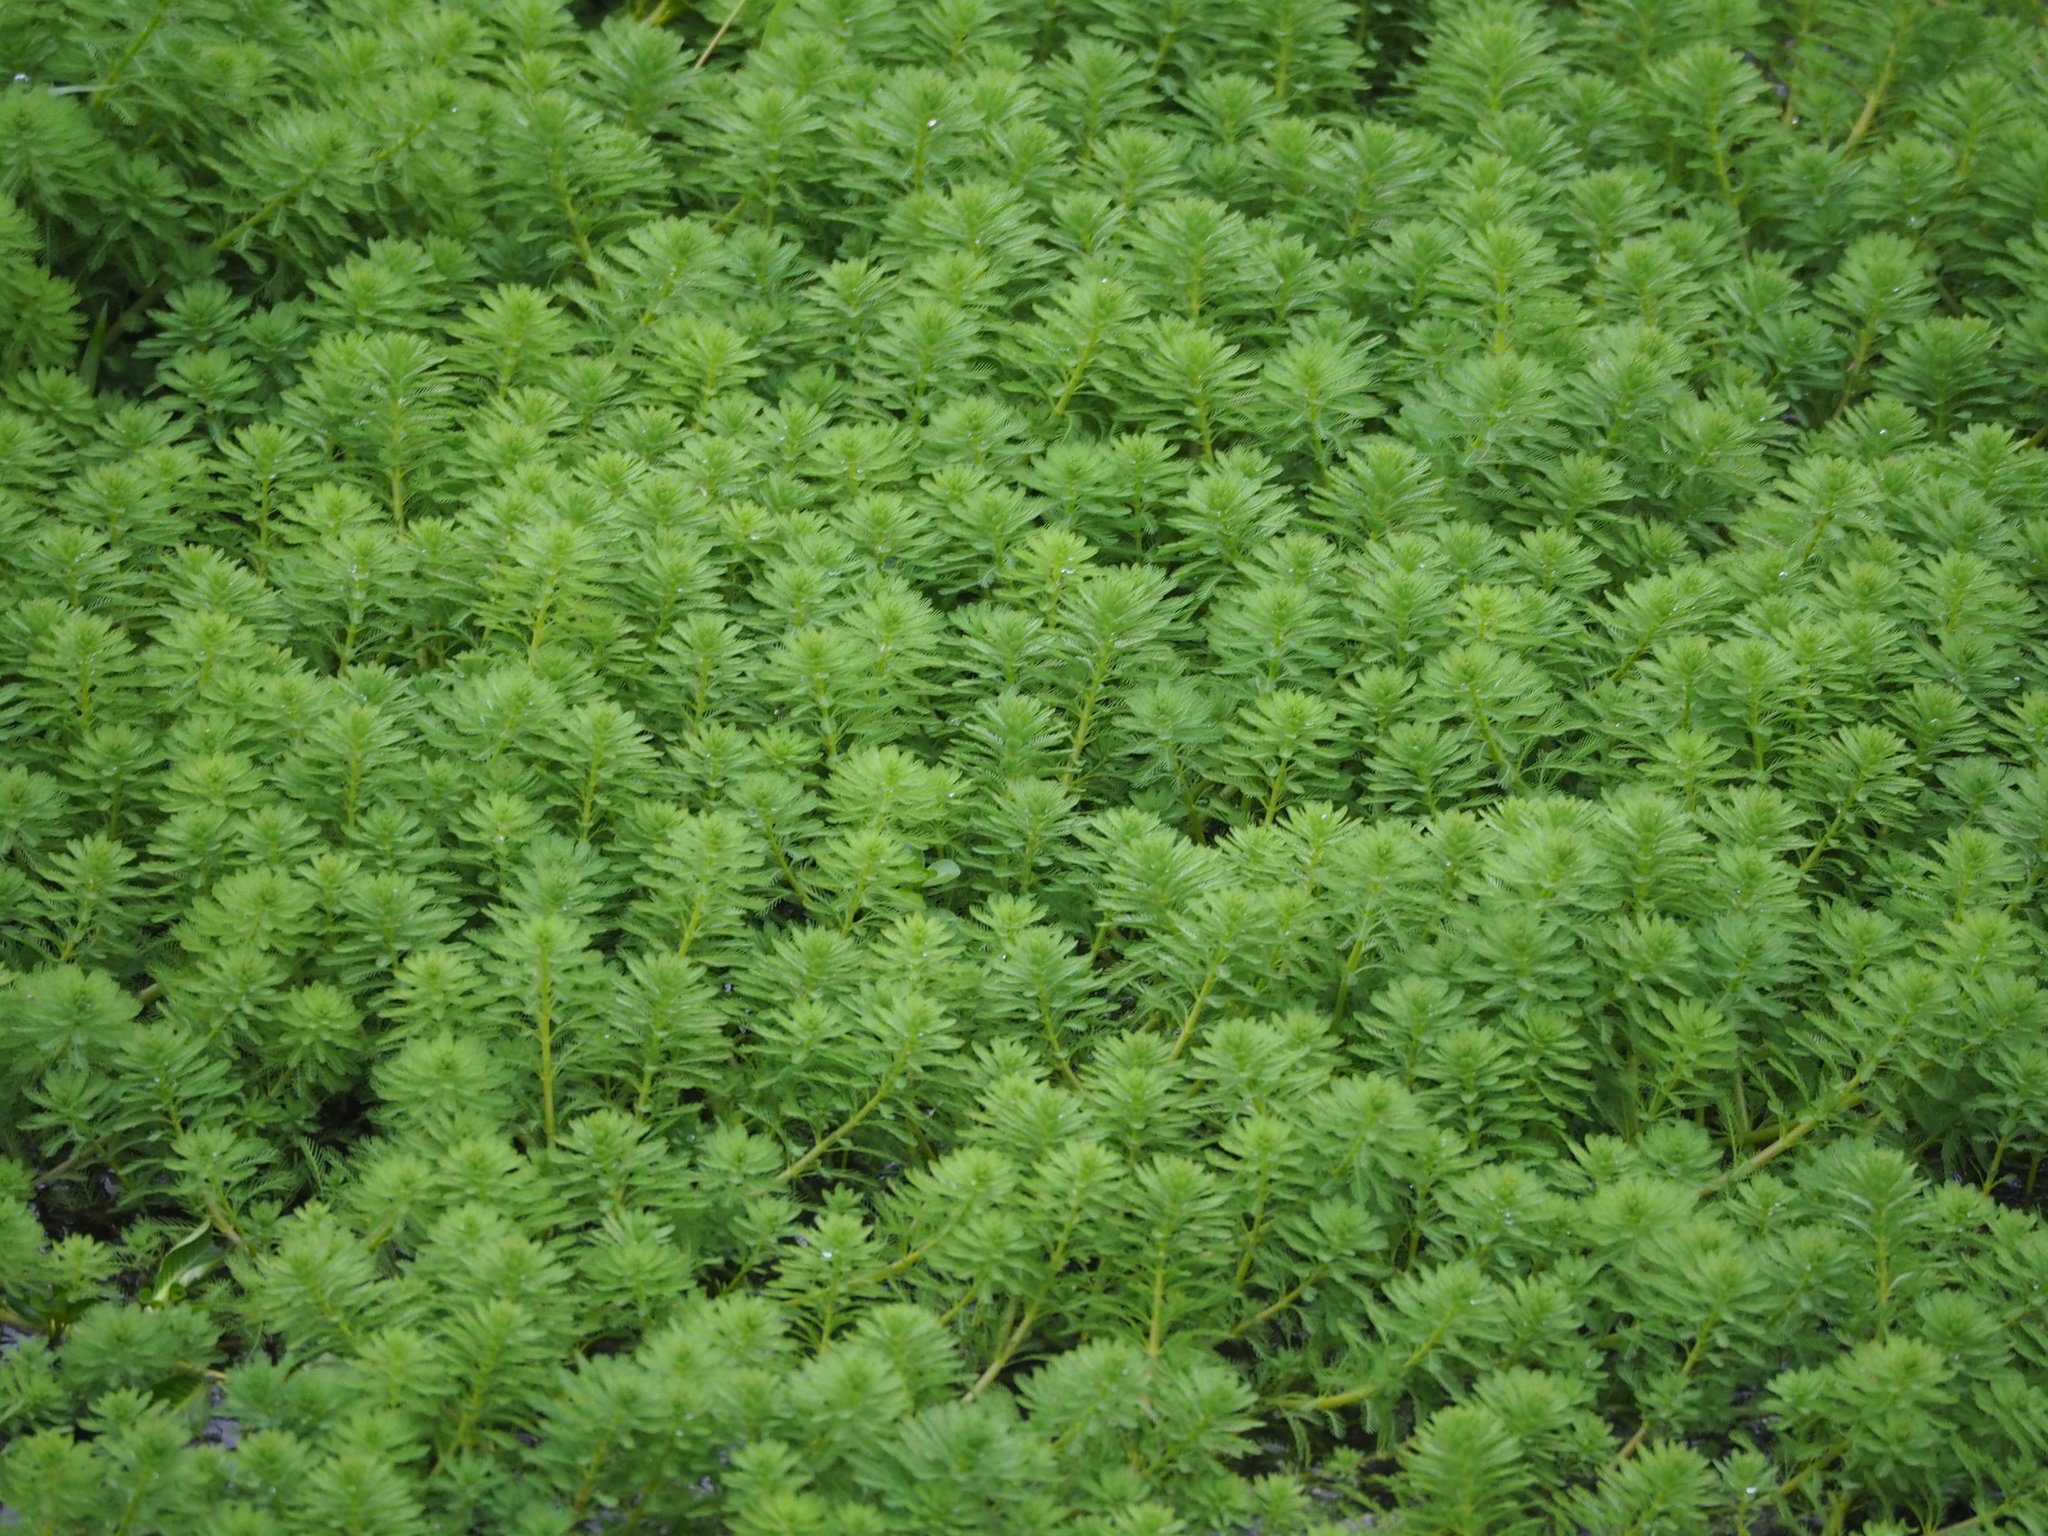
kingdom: Plantae
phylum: Tracheophyta
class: Magnoliopsida
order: Saxifragales
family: Haloragaceae
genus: Myriophyllum
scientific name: Myriophyllum aquaticum
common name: Parrot's feather
